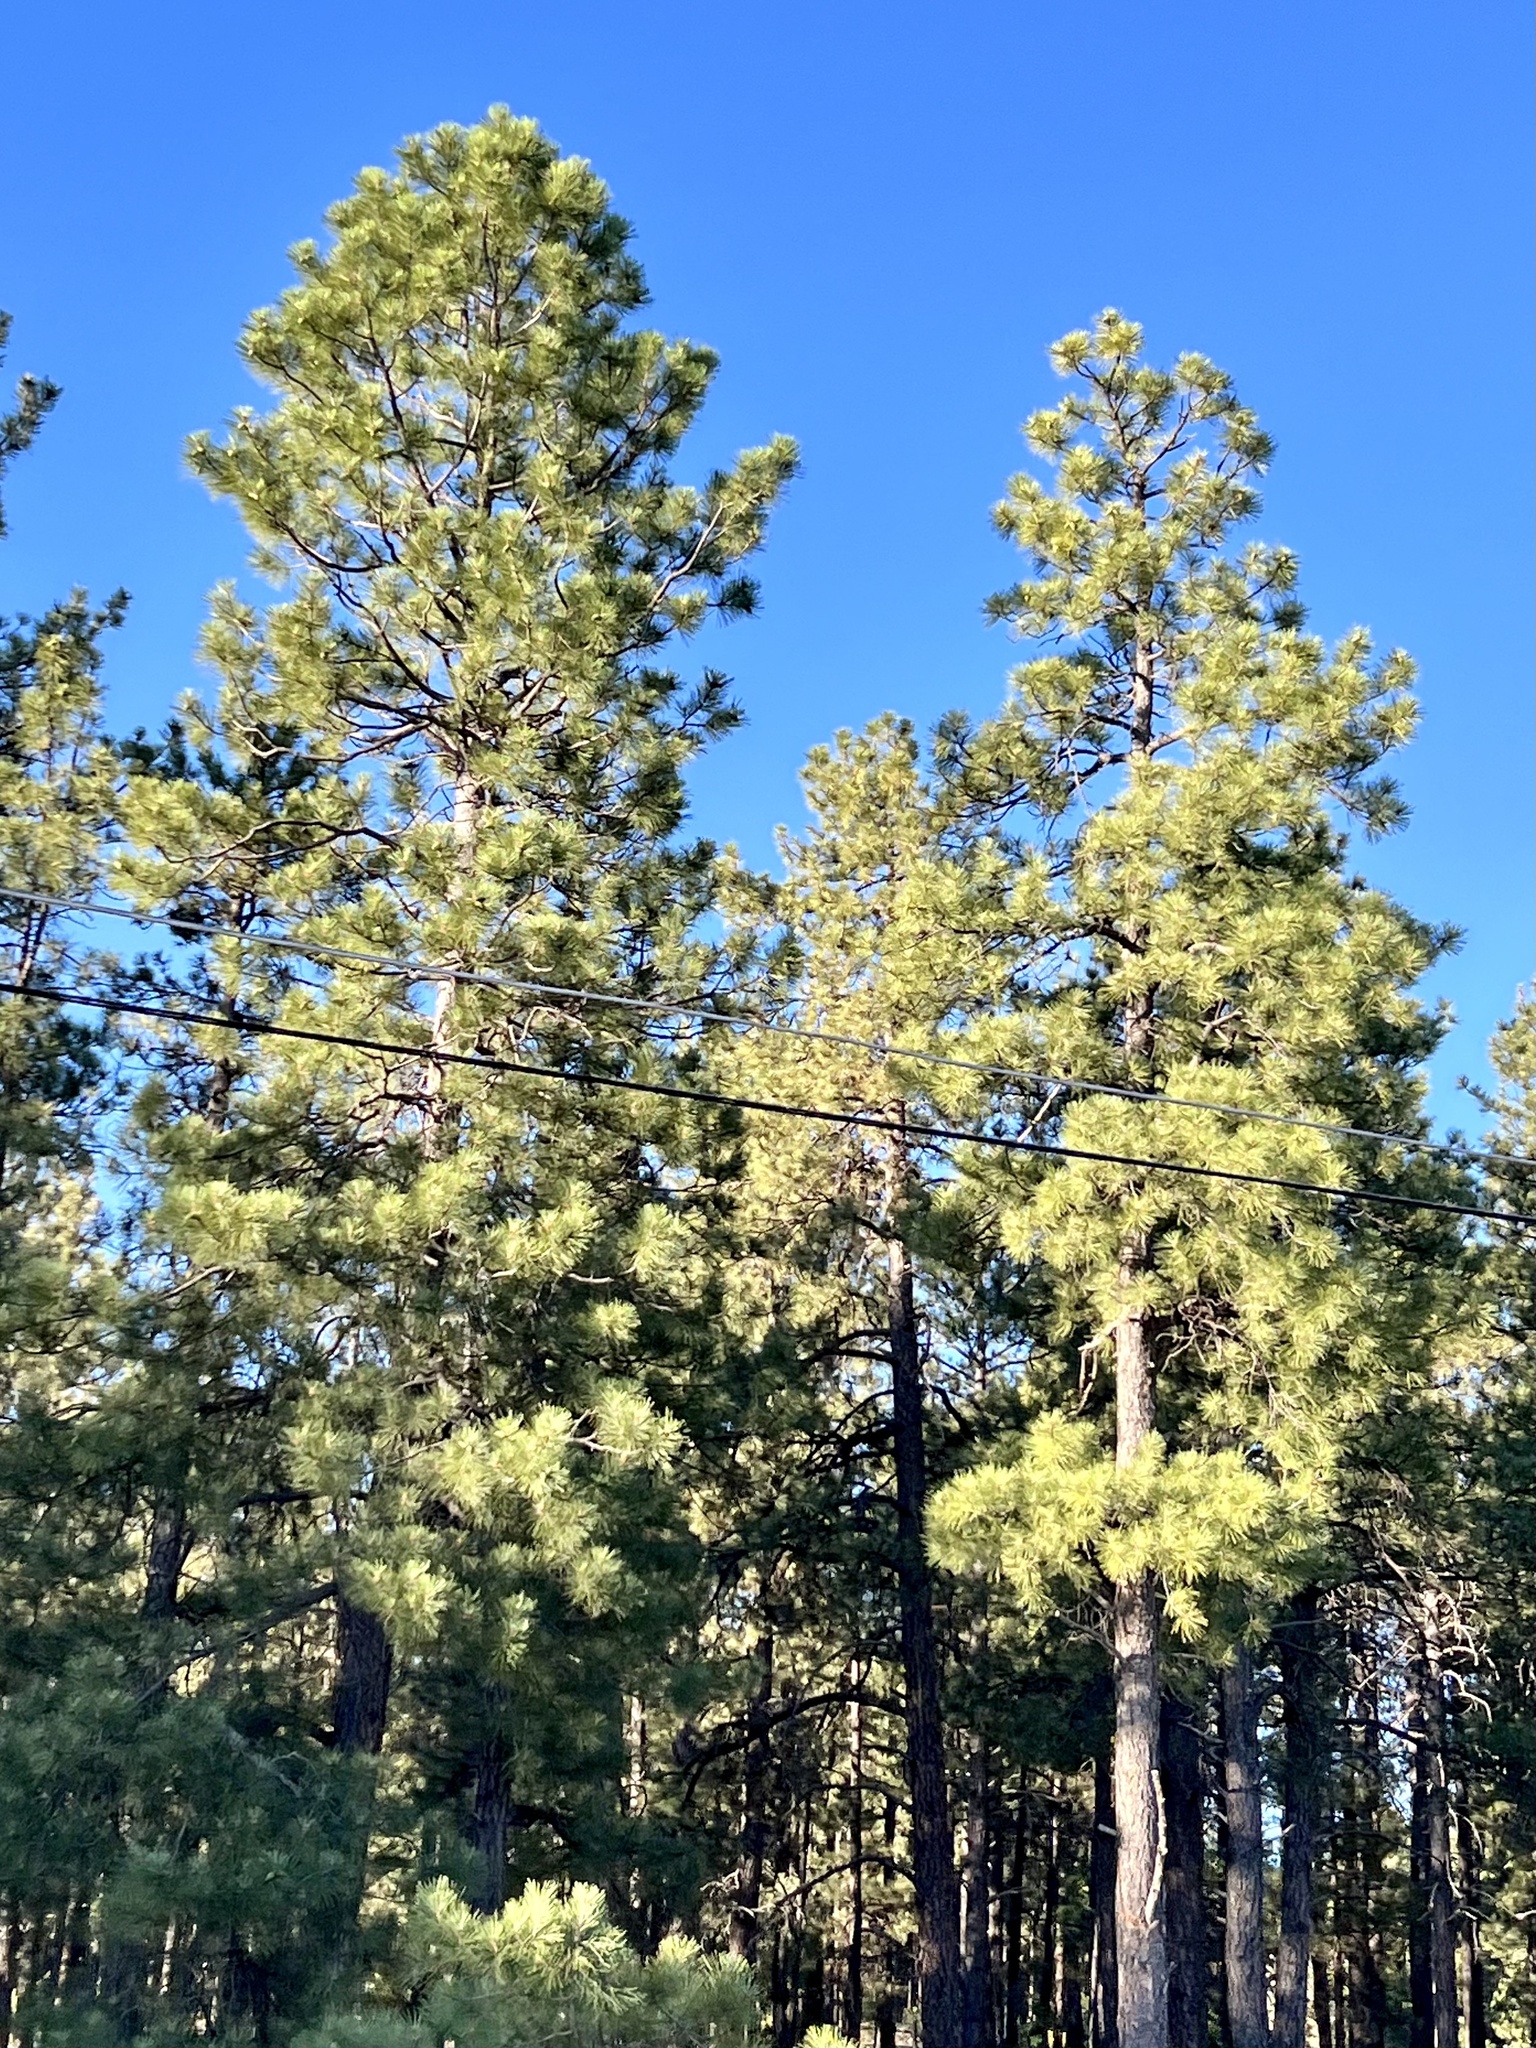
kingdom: Plantae
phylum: Tracheophyta
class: Pinopsida
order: Pinales
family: Pinaceae
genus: Pinus
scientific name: Pinus ponderosa
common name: Western yellow-pine
